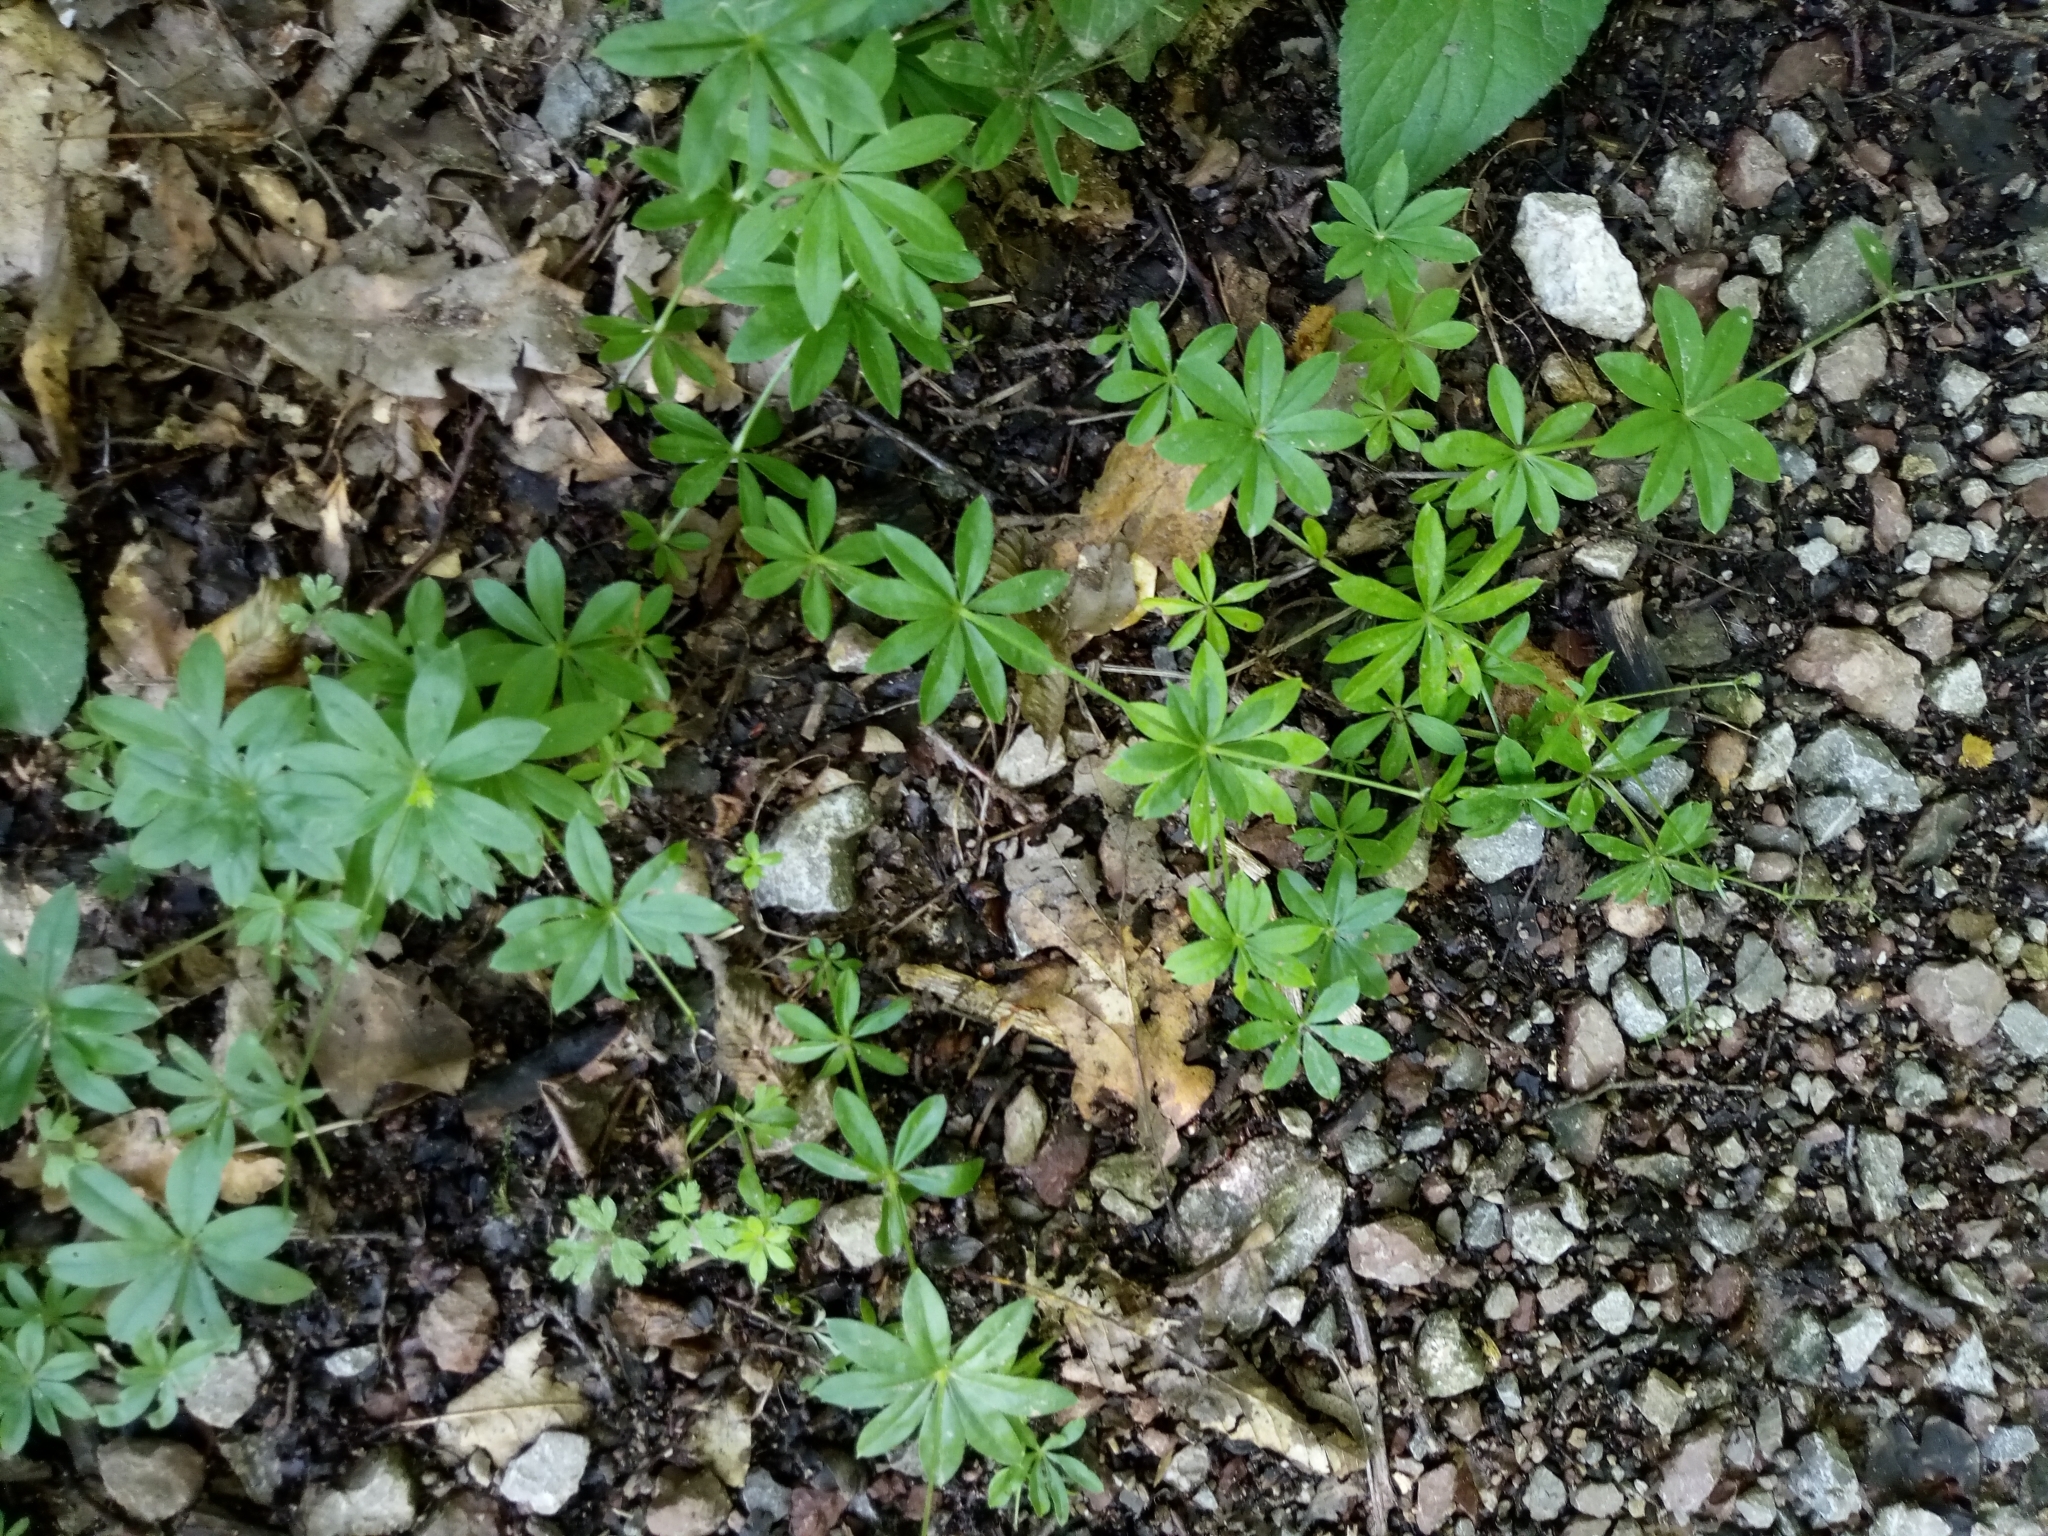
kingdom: Plantae
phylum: Tracheophyta
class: Magnoliopsida
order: Gentianales
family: Rubiaceae
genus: Galium
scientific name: Galium odoratum
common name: Sweet woodruff
